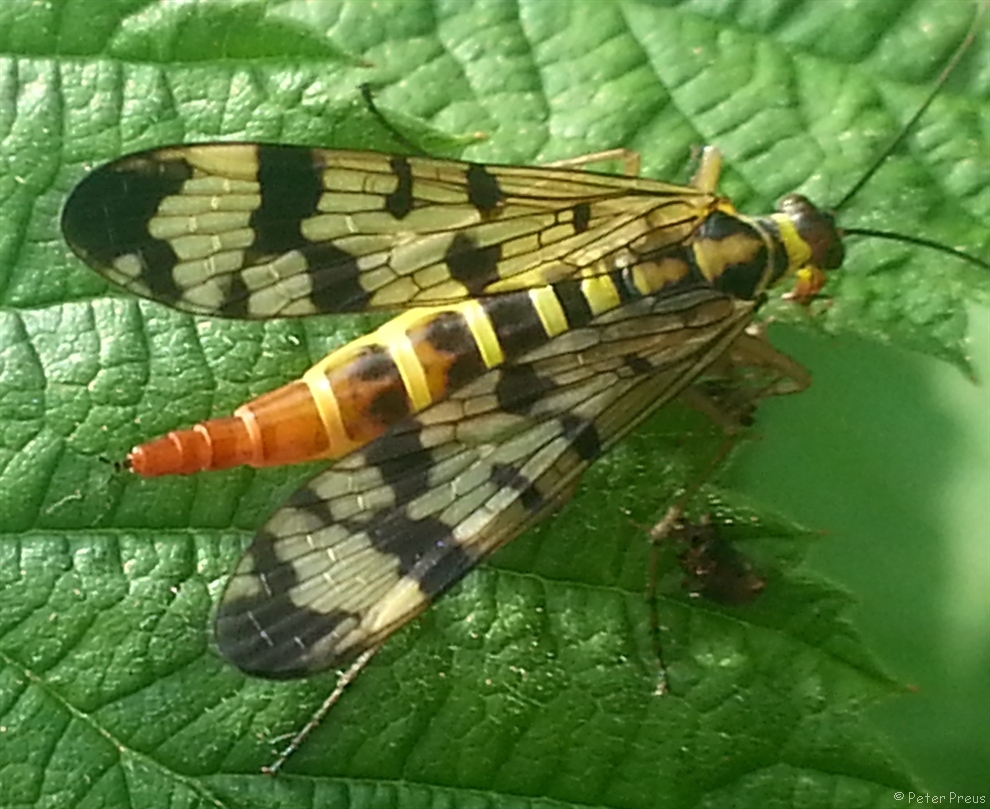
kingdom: Animalia
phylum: Arthropoda
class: Insecta
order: Mecoptera
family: Panorpidae
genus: Panorpa
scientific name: Panorpa communis
